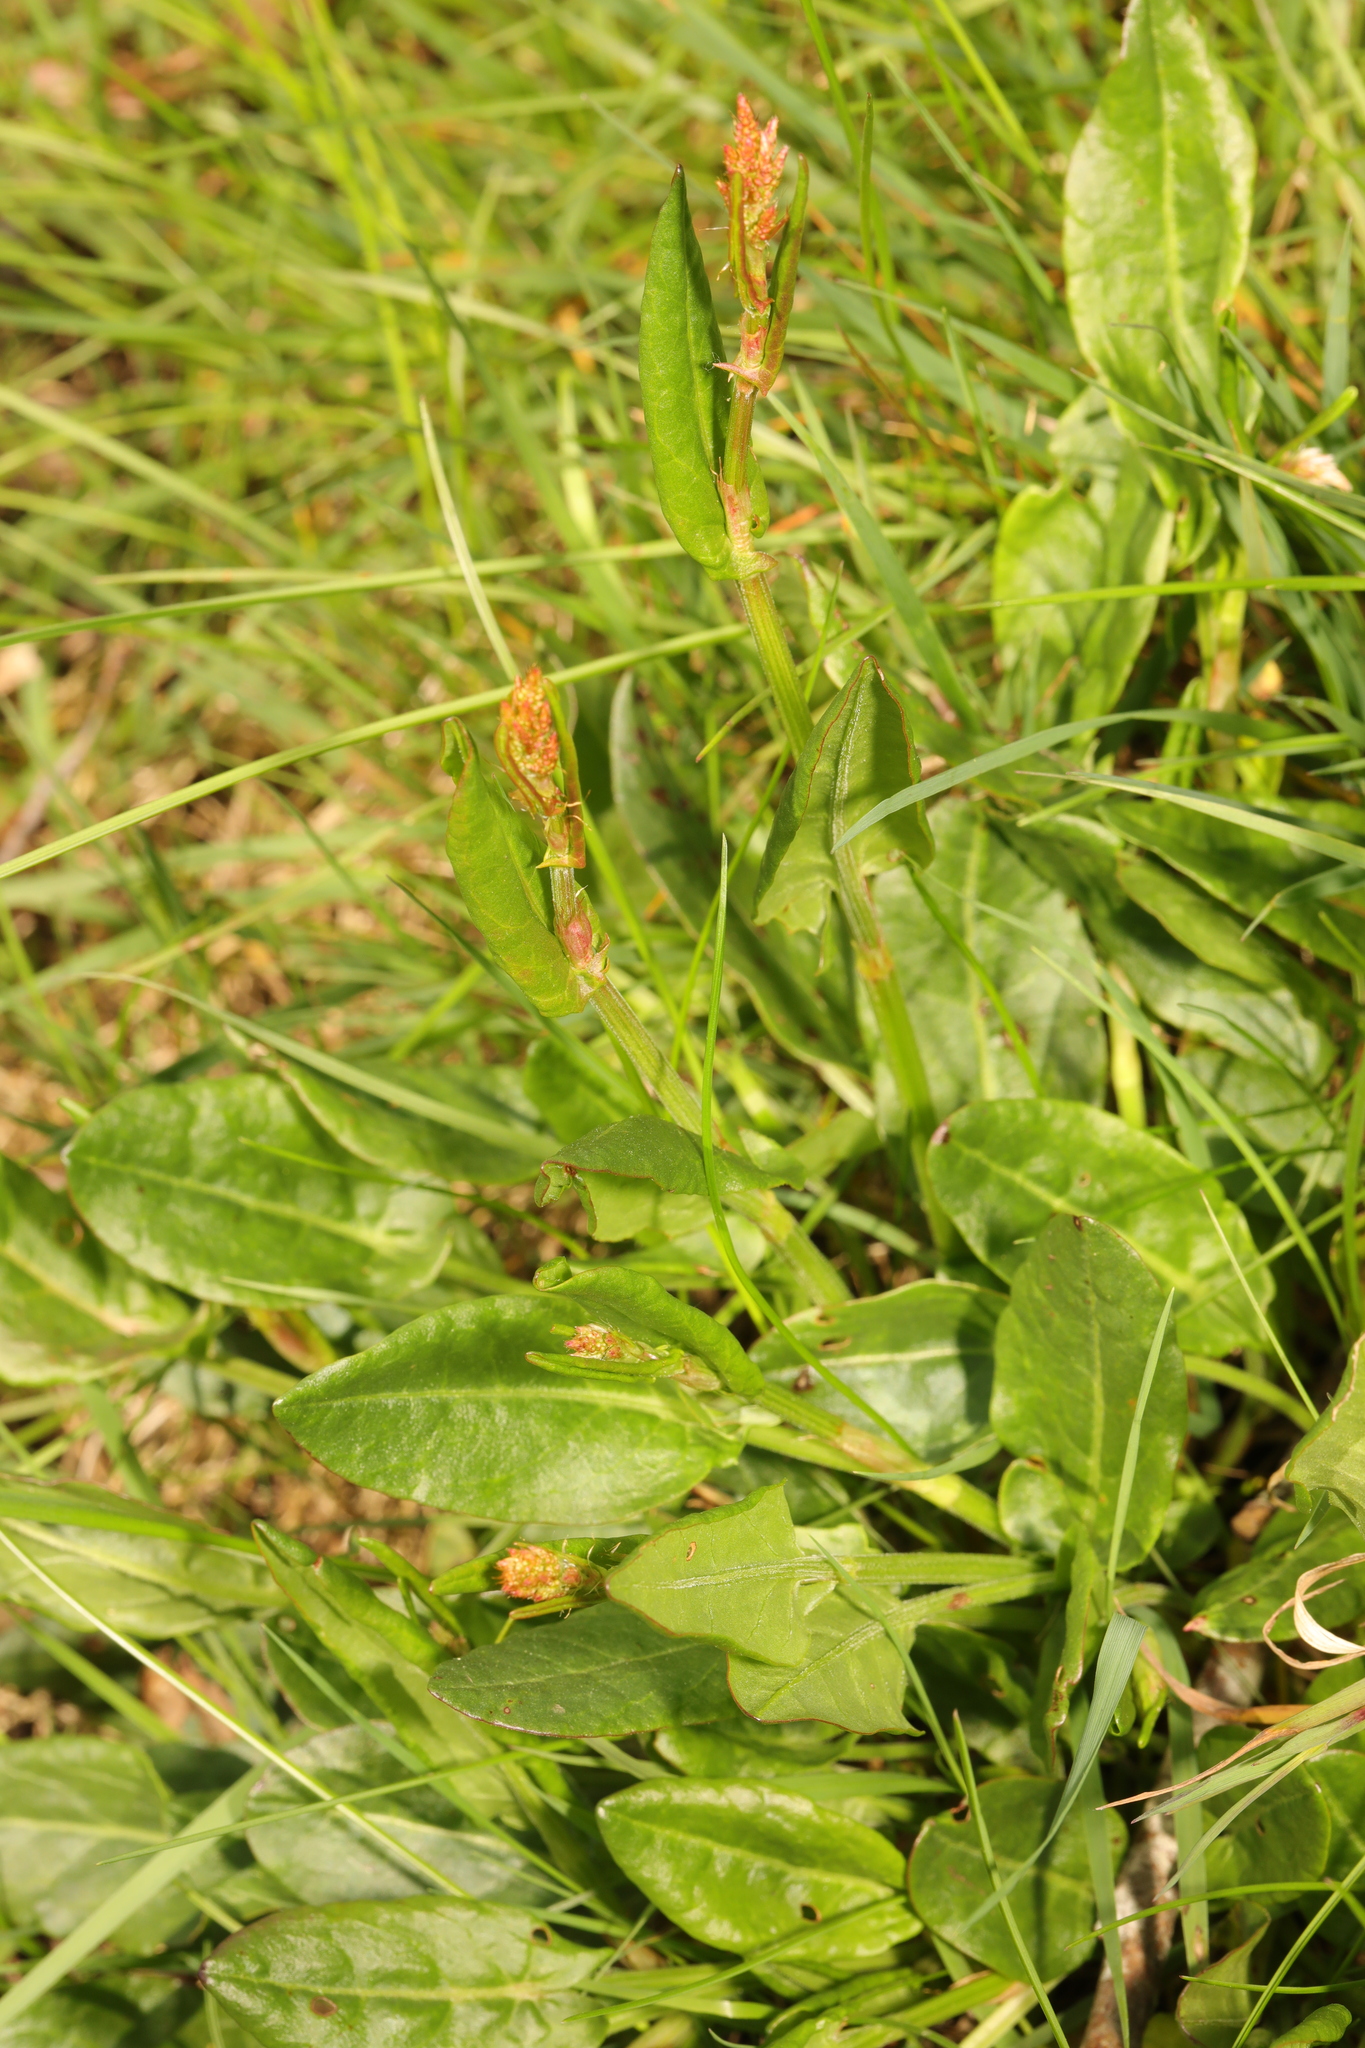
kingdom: Plantae
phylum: Tracheophyta
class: Magnoliopsida
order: Caryophyllales
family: Polygonaceae
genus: Rumex
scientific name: Rumex acetosa
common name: Garden sorrel
